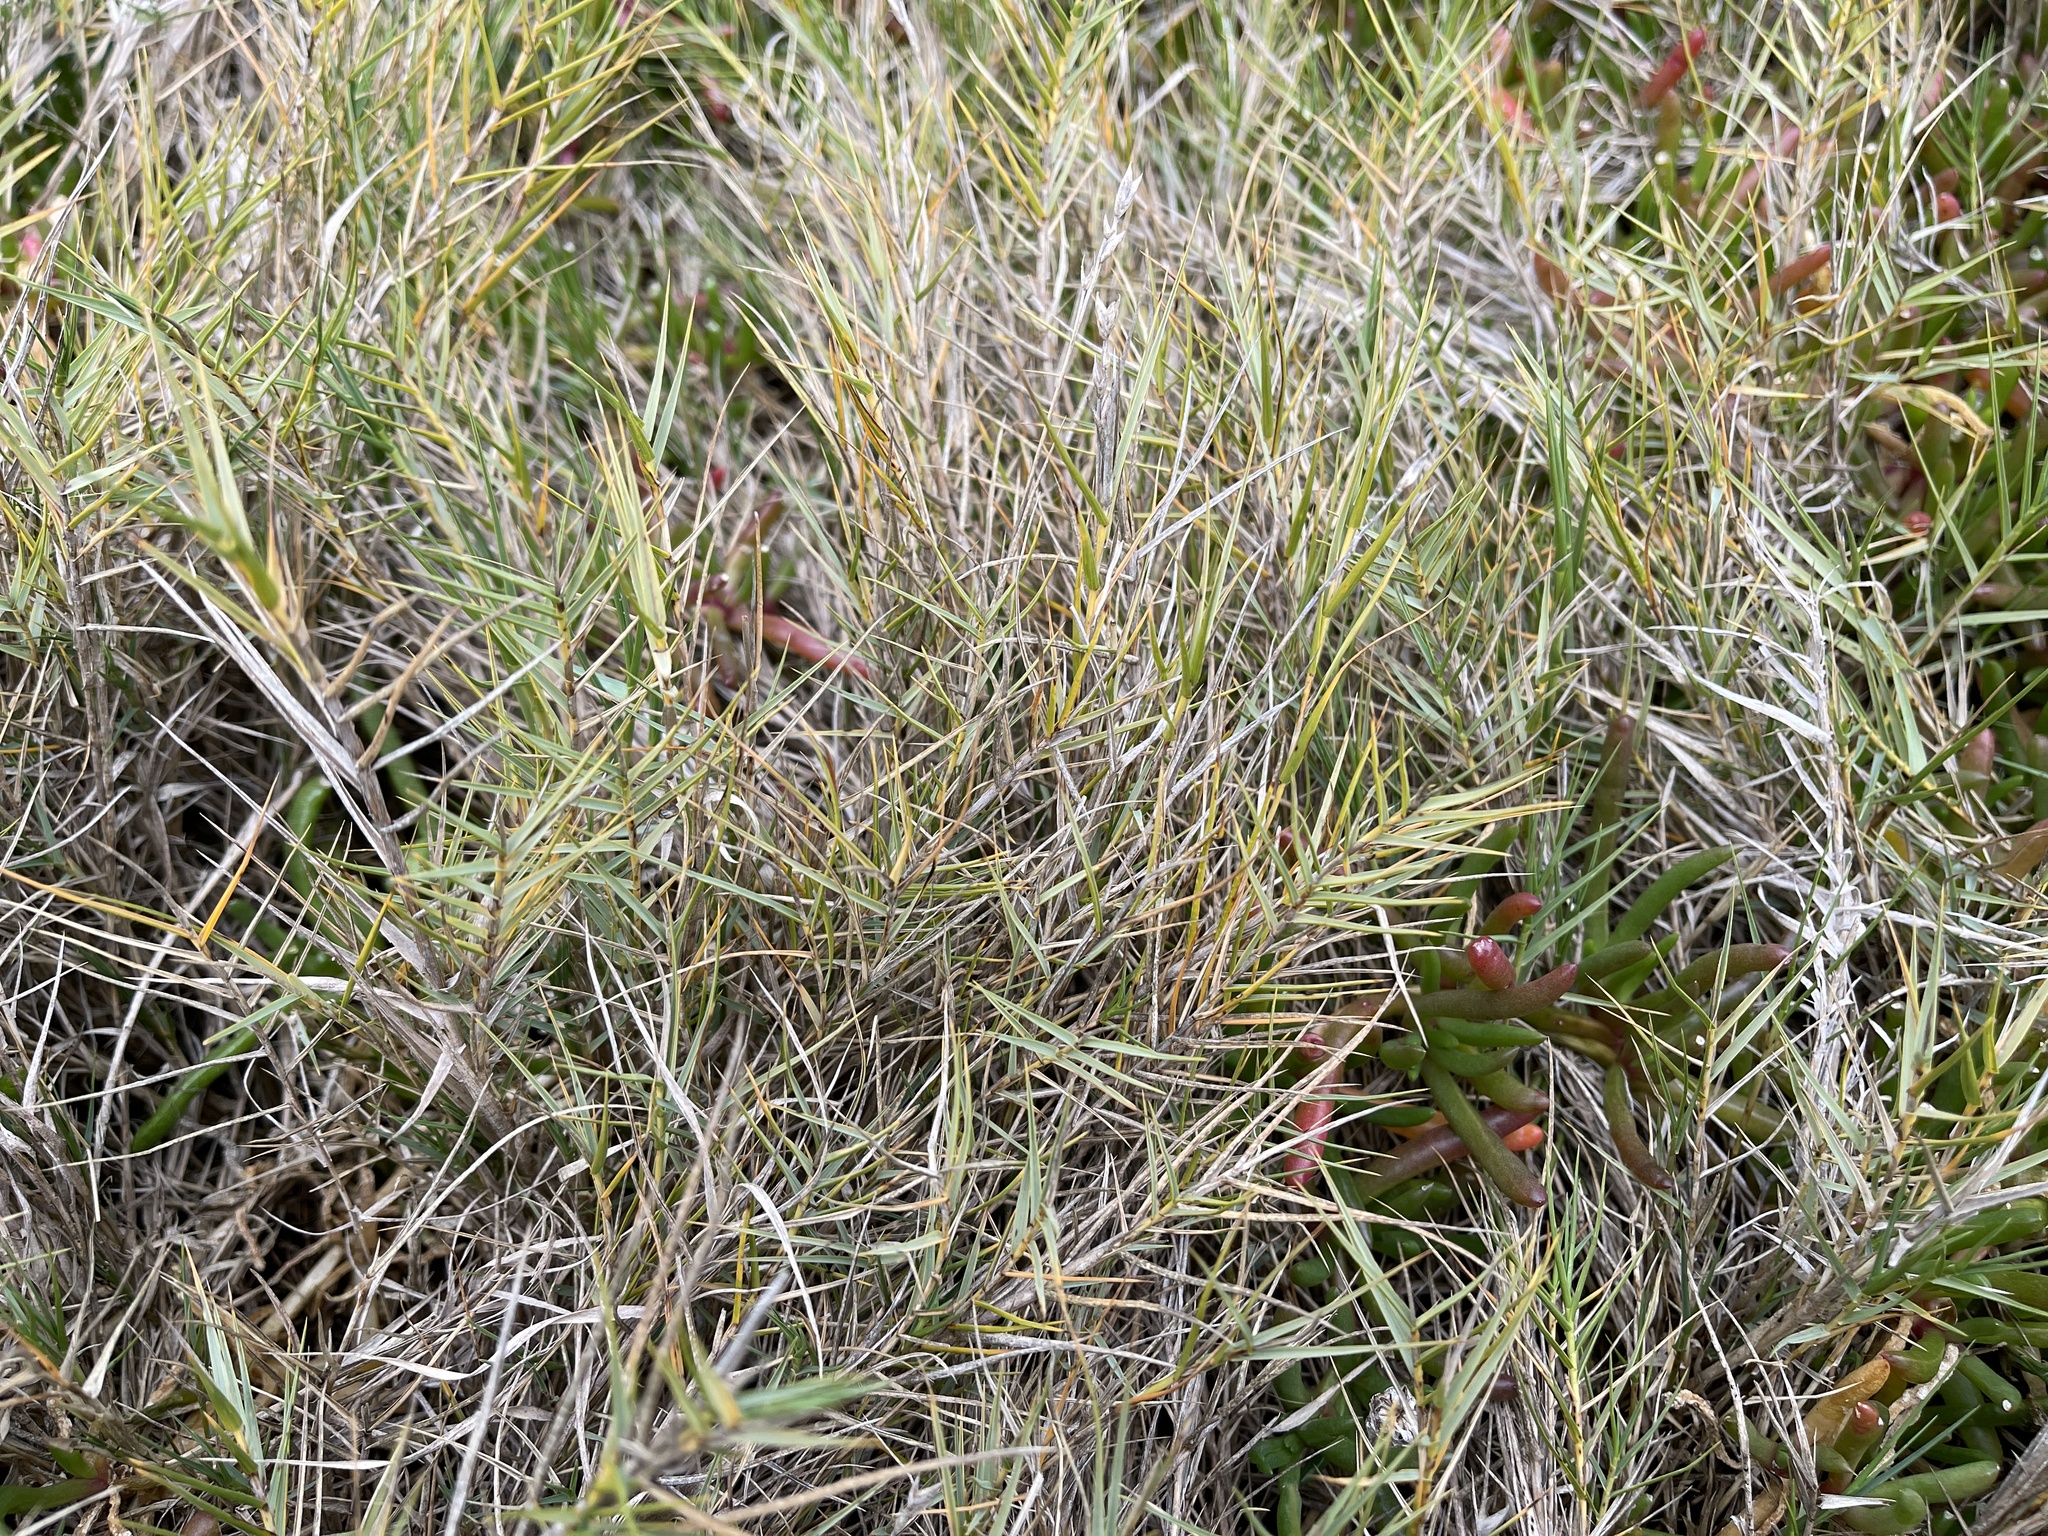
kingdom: Plantae
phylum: Tracheophyta
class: Liliopsida
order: Poales
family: Poaceae
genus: Distichlis
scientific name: Distichlis distichophylla
